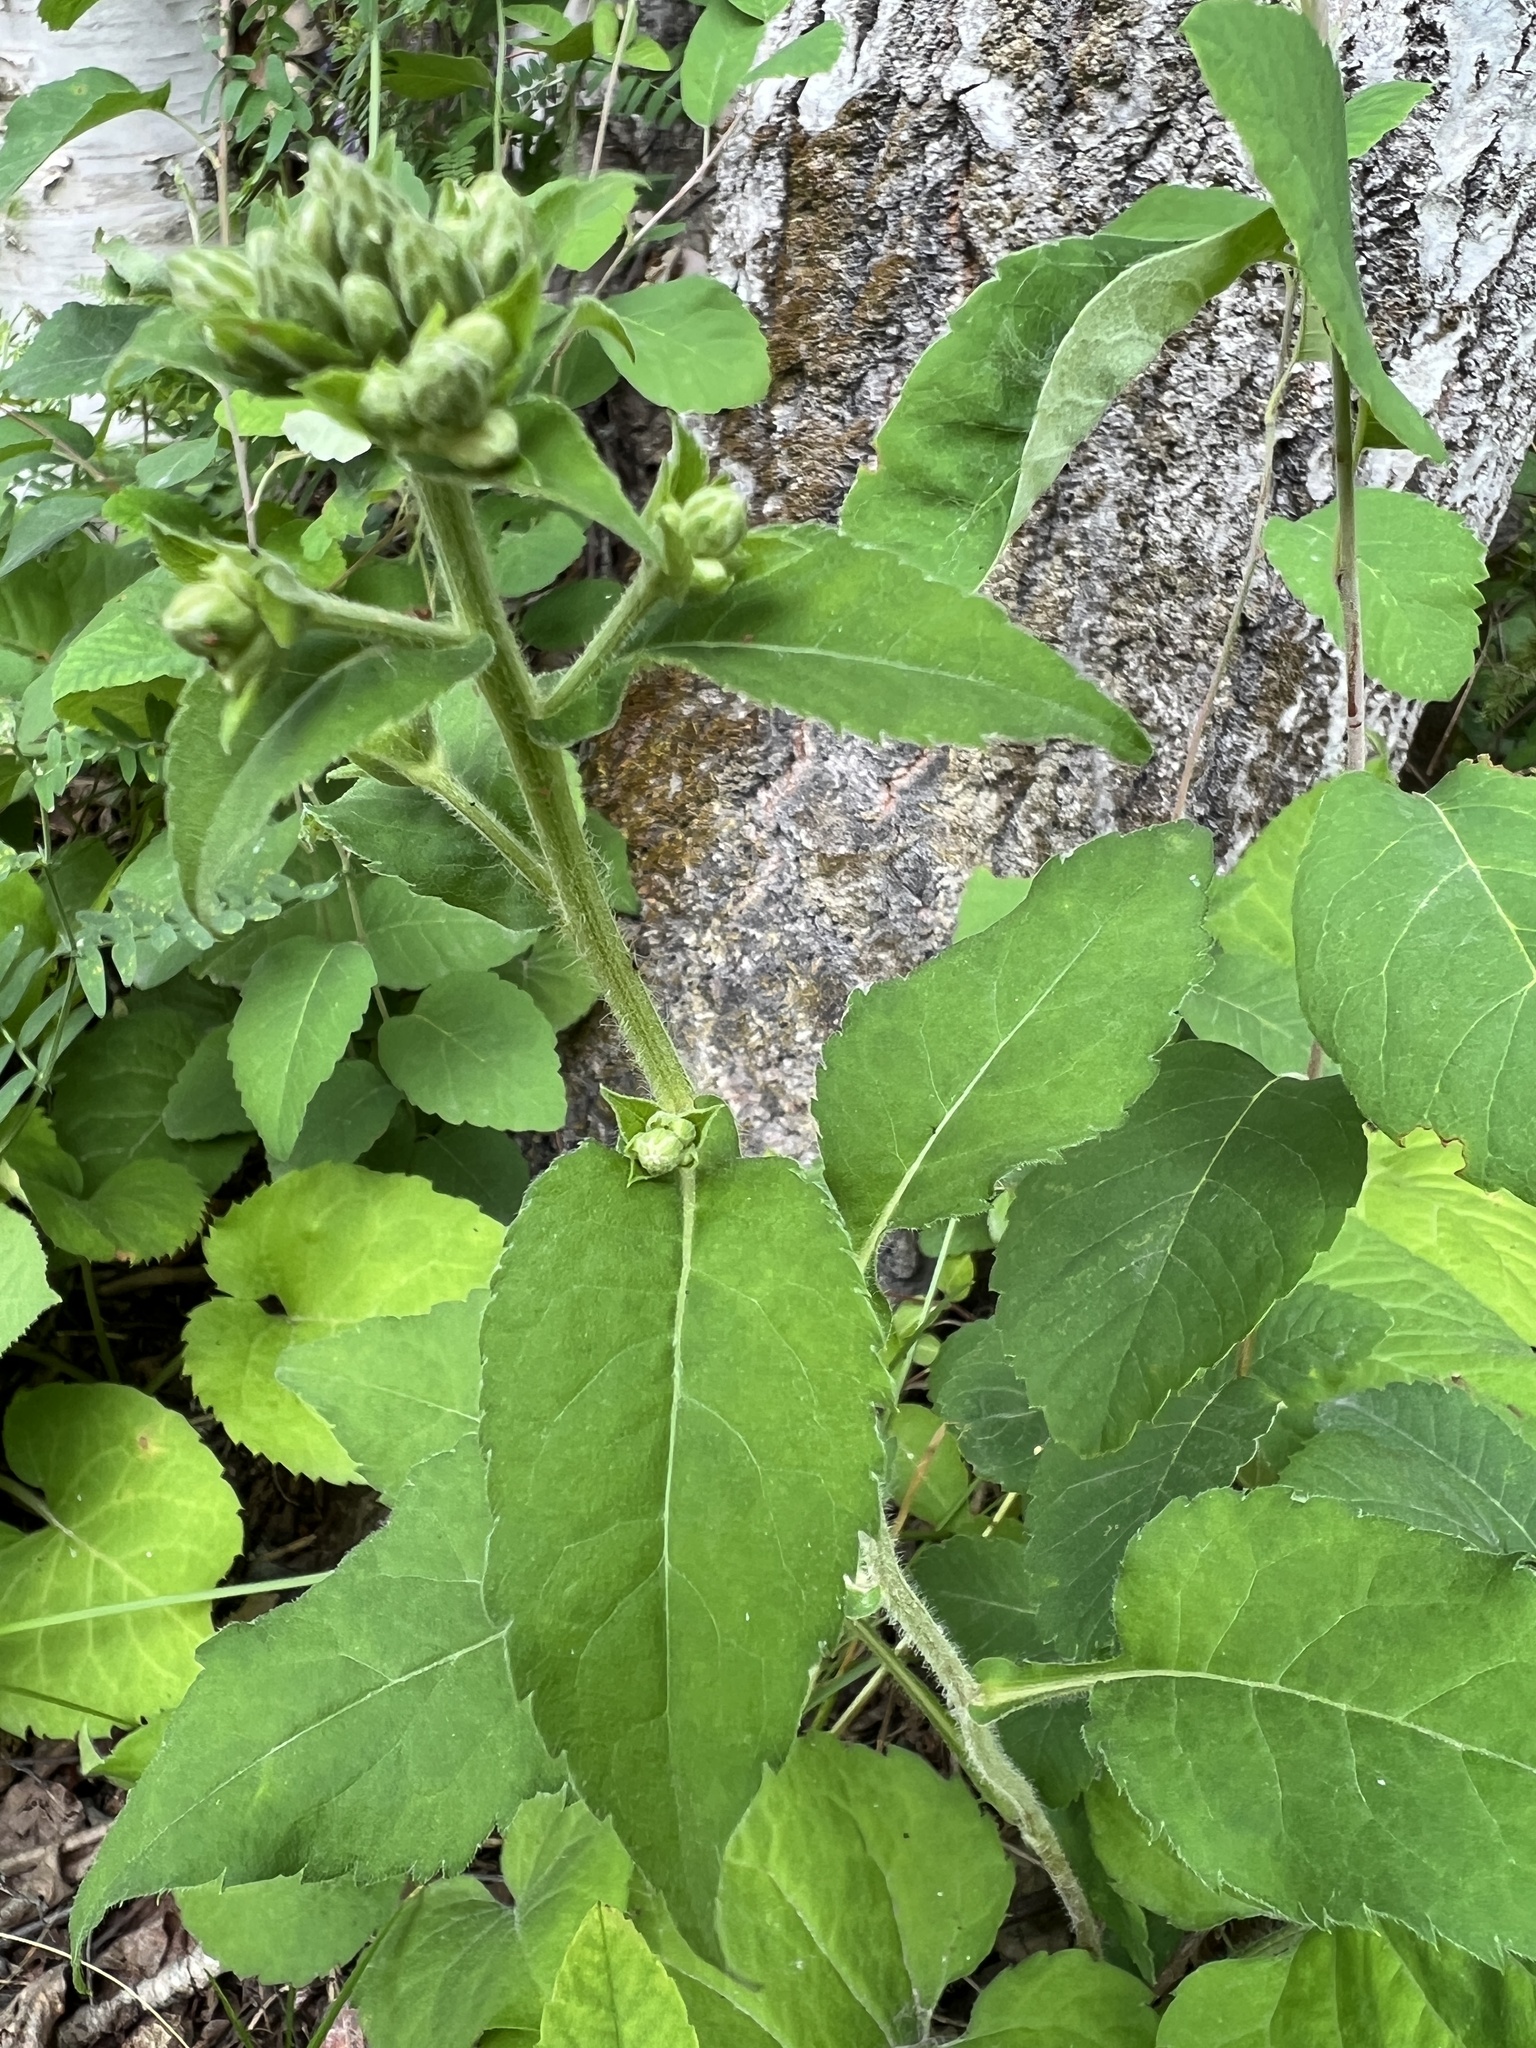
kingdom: Plantae
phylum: Tracheophyta
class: Magnoliopsida
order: Asterales
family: Asteraceae
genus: Eurybia
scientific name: Eurybia macrophylla
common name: Big-leaved aster
